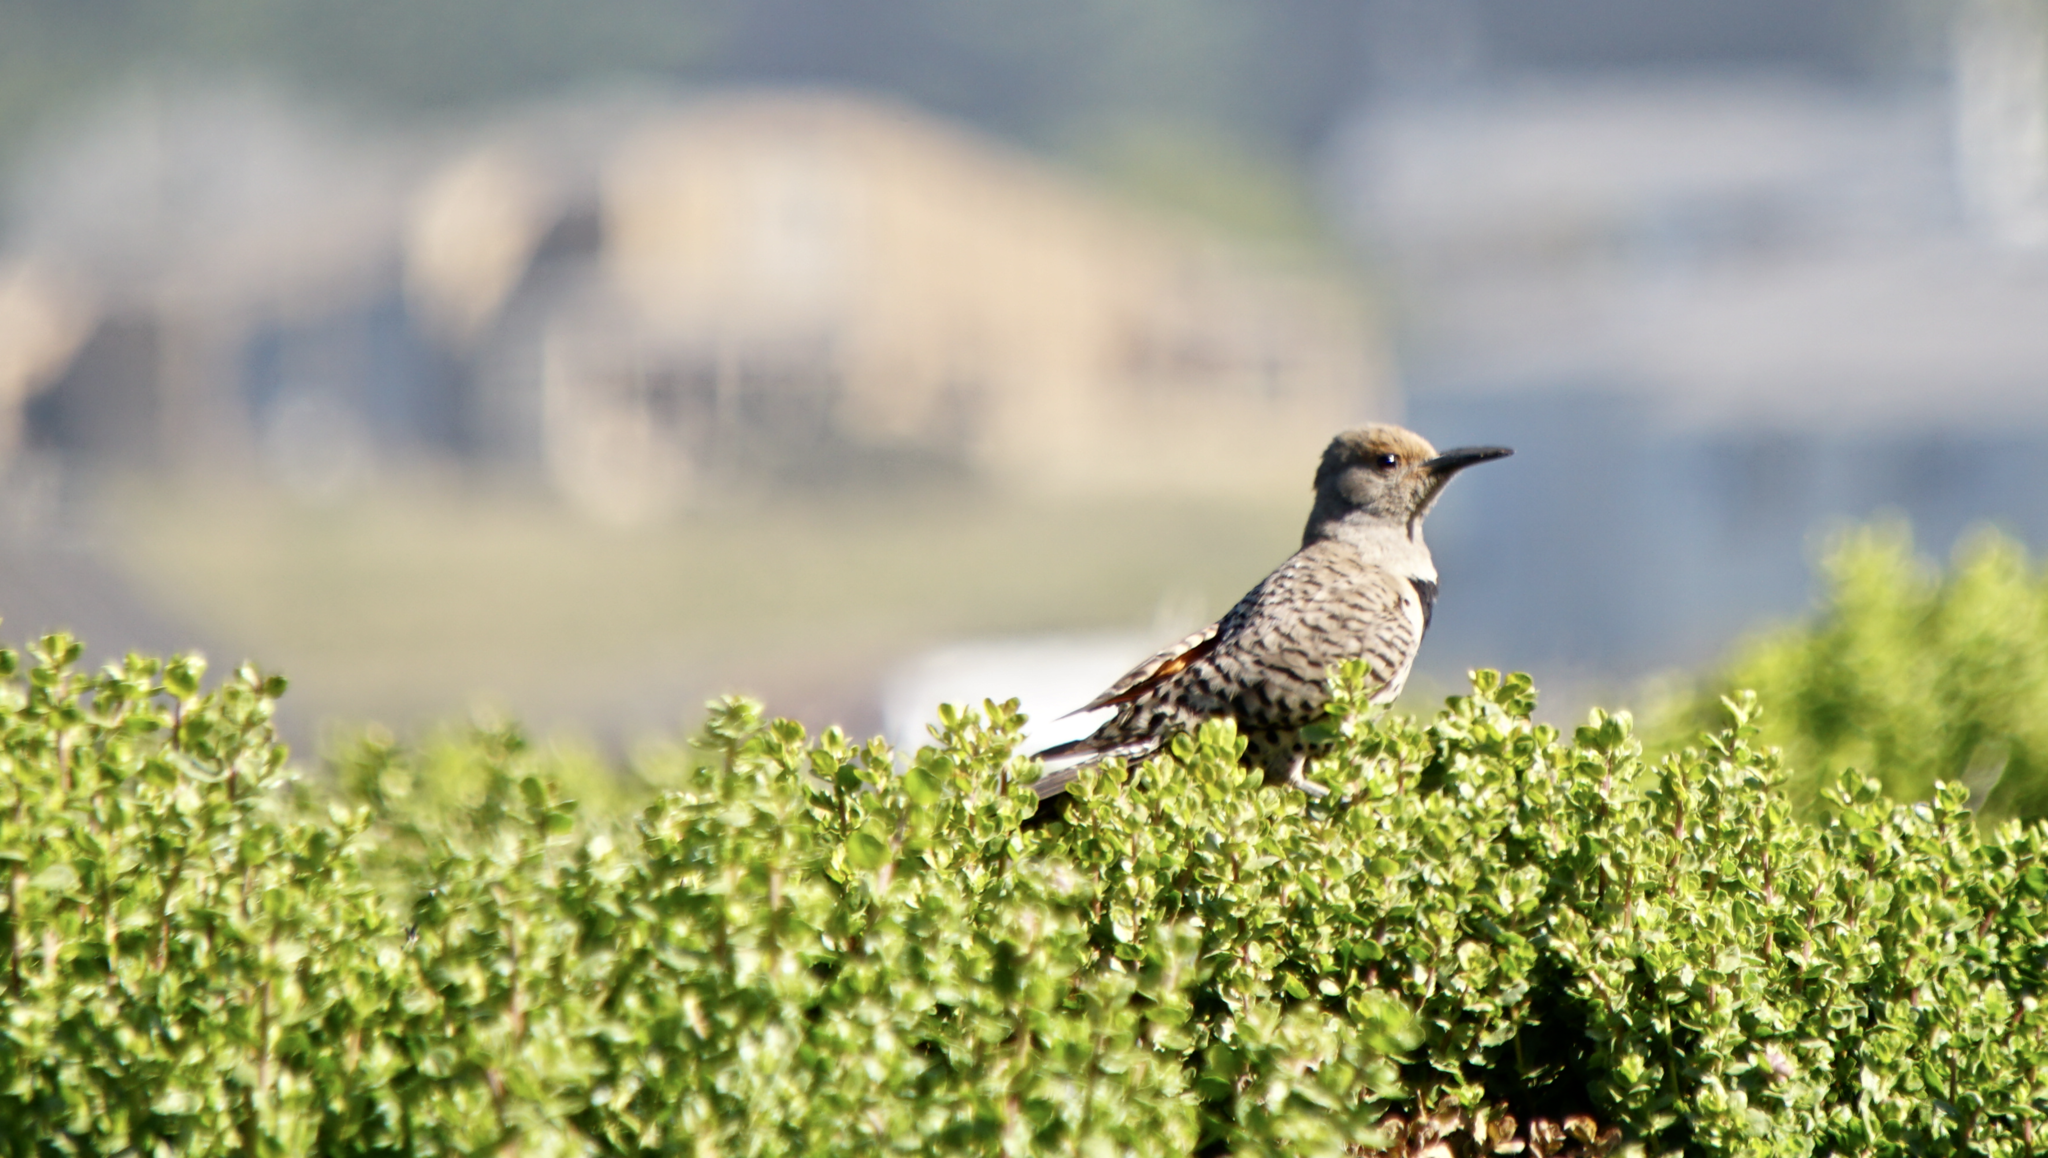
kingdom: Animalia
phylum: Chordata
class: Aves
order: Piciformes
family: Picidae
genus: Colaptes
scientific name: Colaptes auratus
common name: Northern flicker
